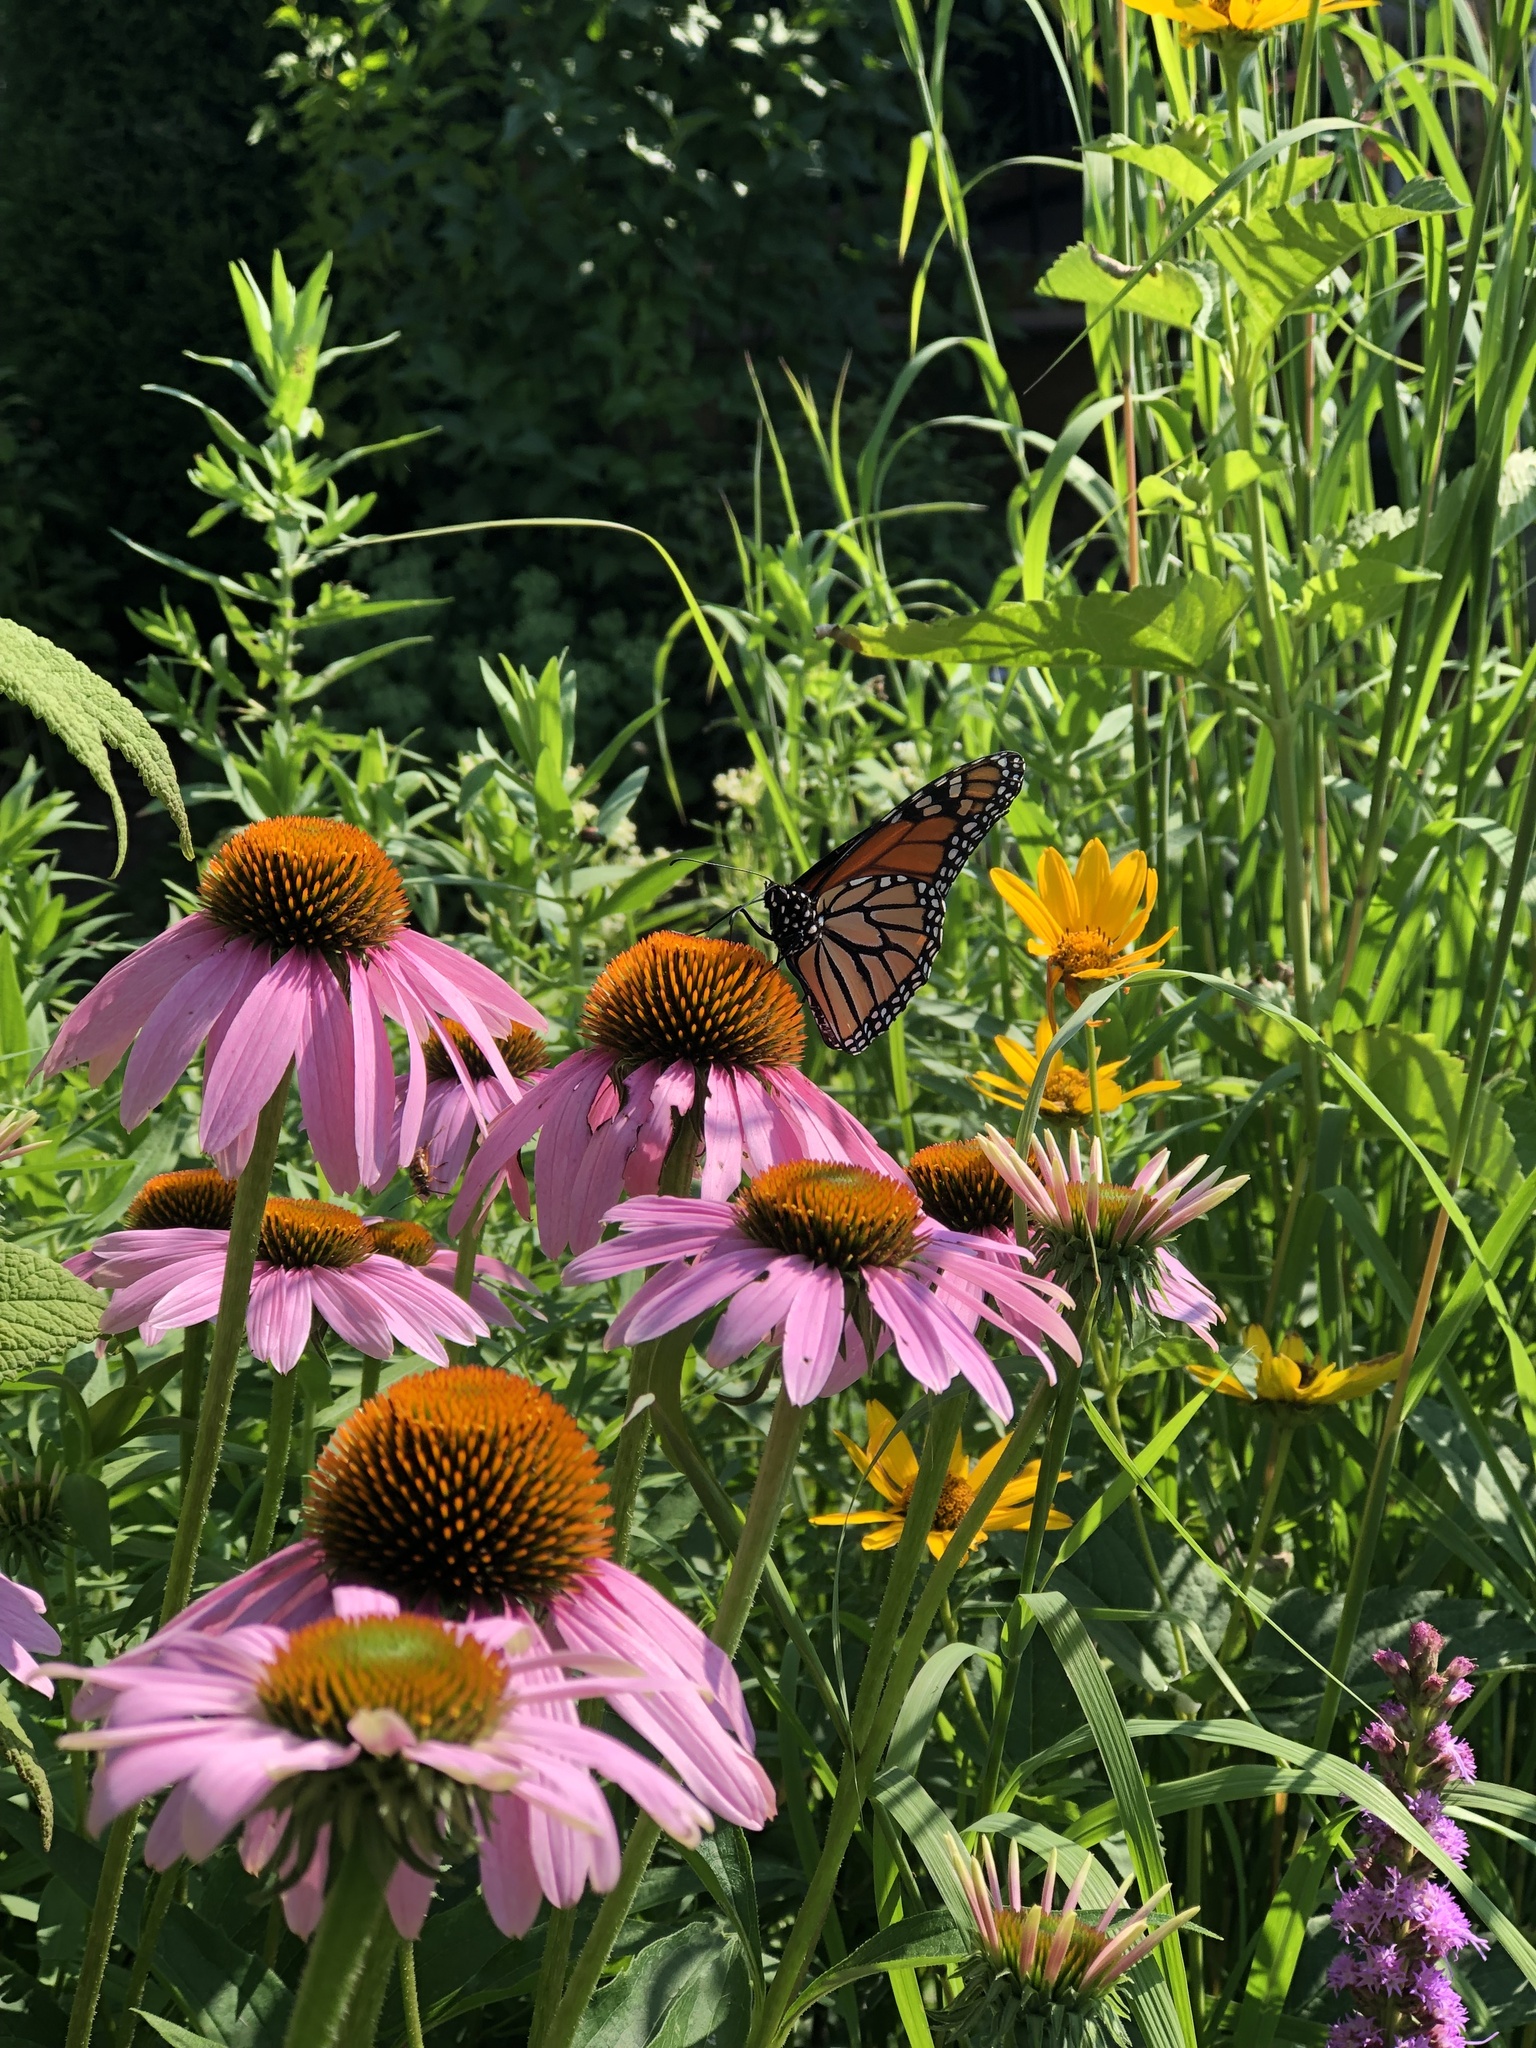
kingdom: Animalia
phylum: Arthropoda
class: Insecta
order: Lepidoptera
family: Nymphalidae
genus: Danaus
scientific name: Danaus plexippus
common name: Monarch
